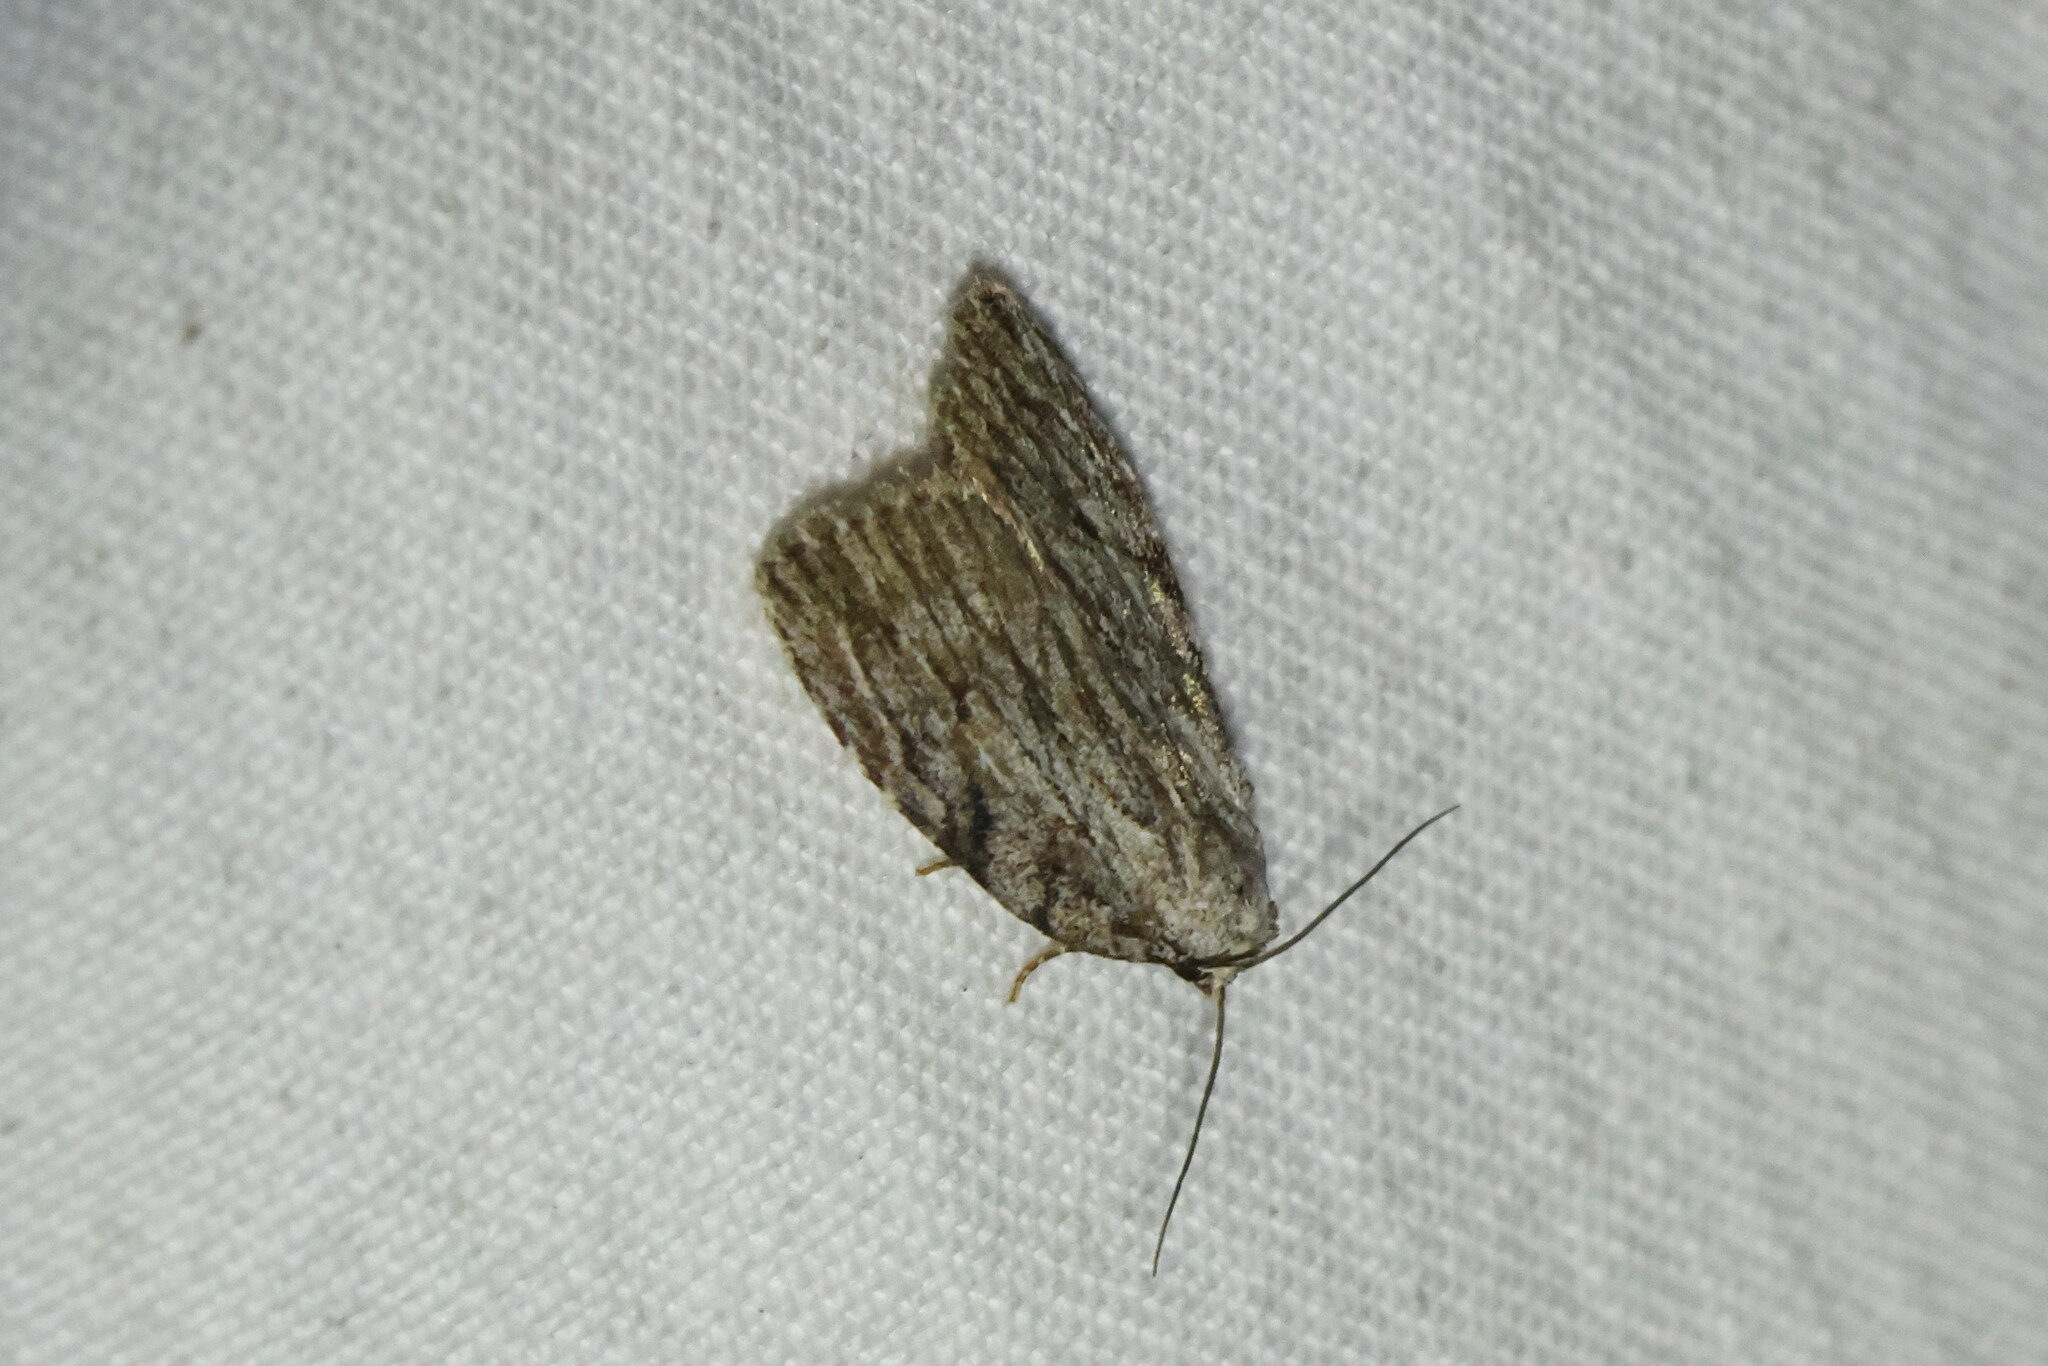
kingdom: Animalia
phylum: Arthropoda
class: Insecta
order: Lepidoptera
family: Noctuidae
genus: Balsa
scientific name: Balsa tristrigella
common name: Three-lined balsa moth
